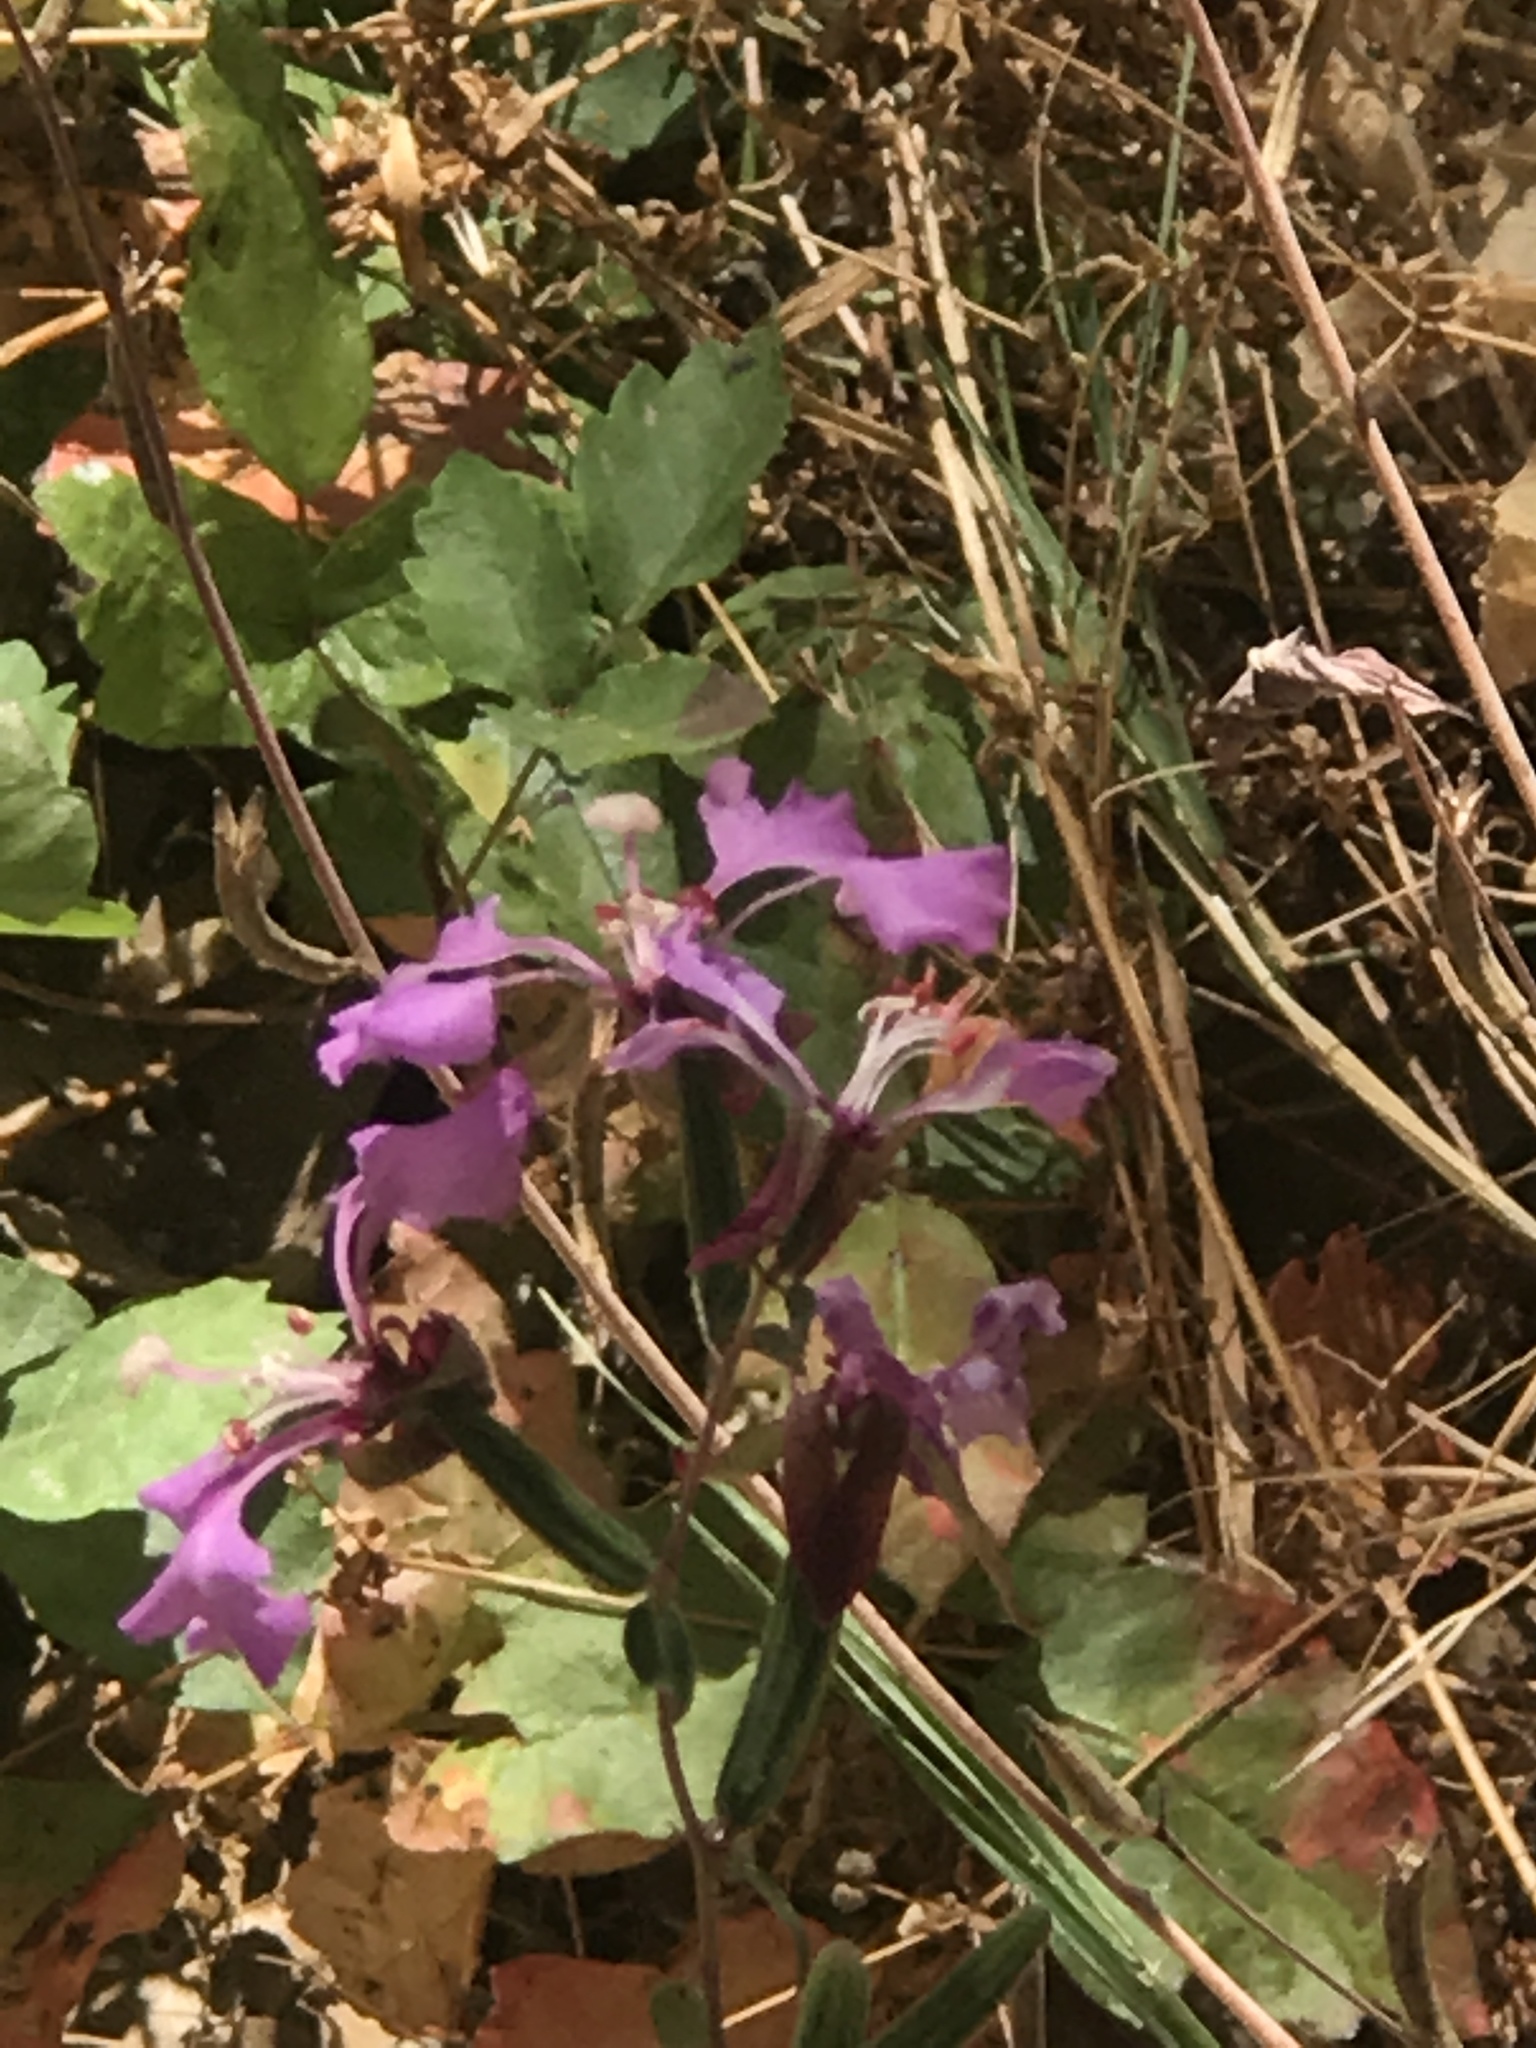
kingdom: Plantae
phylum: Tracheophyta
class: Magnoliopsida
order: Myrtales
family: Onagraceae
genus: Clarkia
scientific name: Clarkia unguiculata
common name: Clarkia
